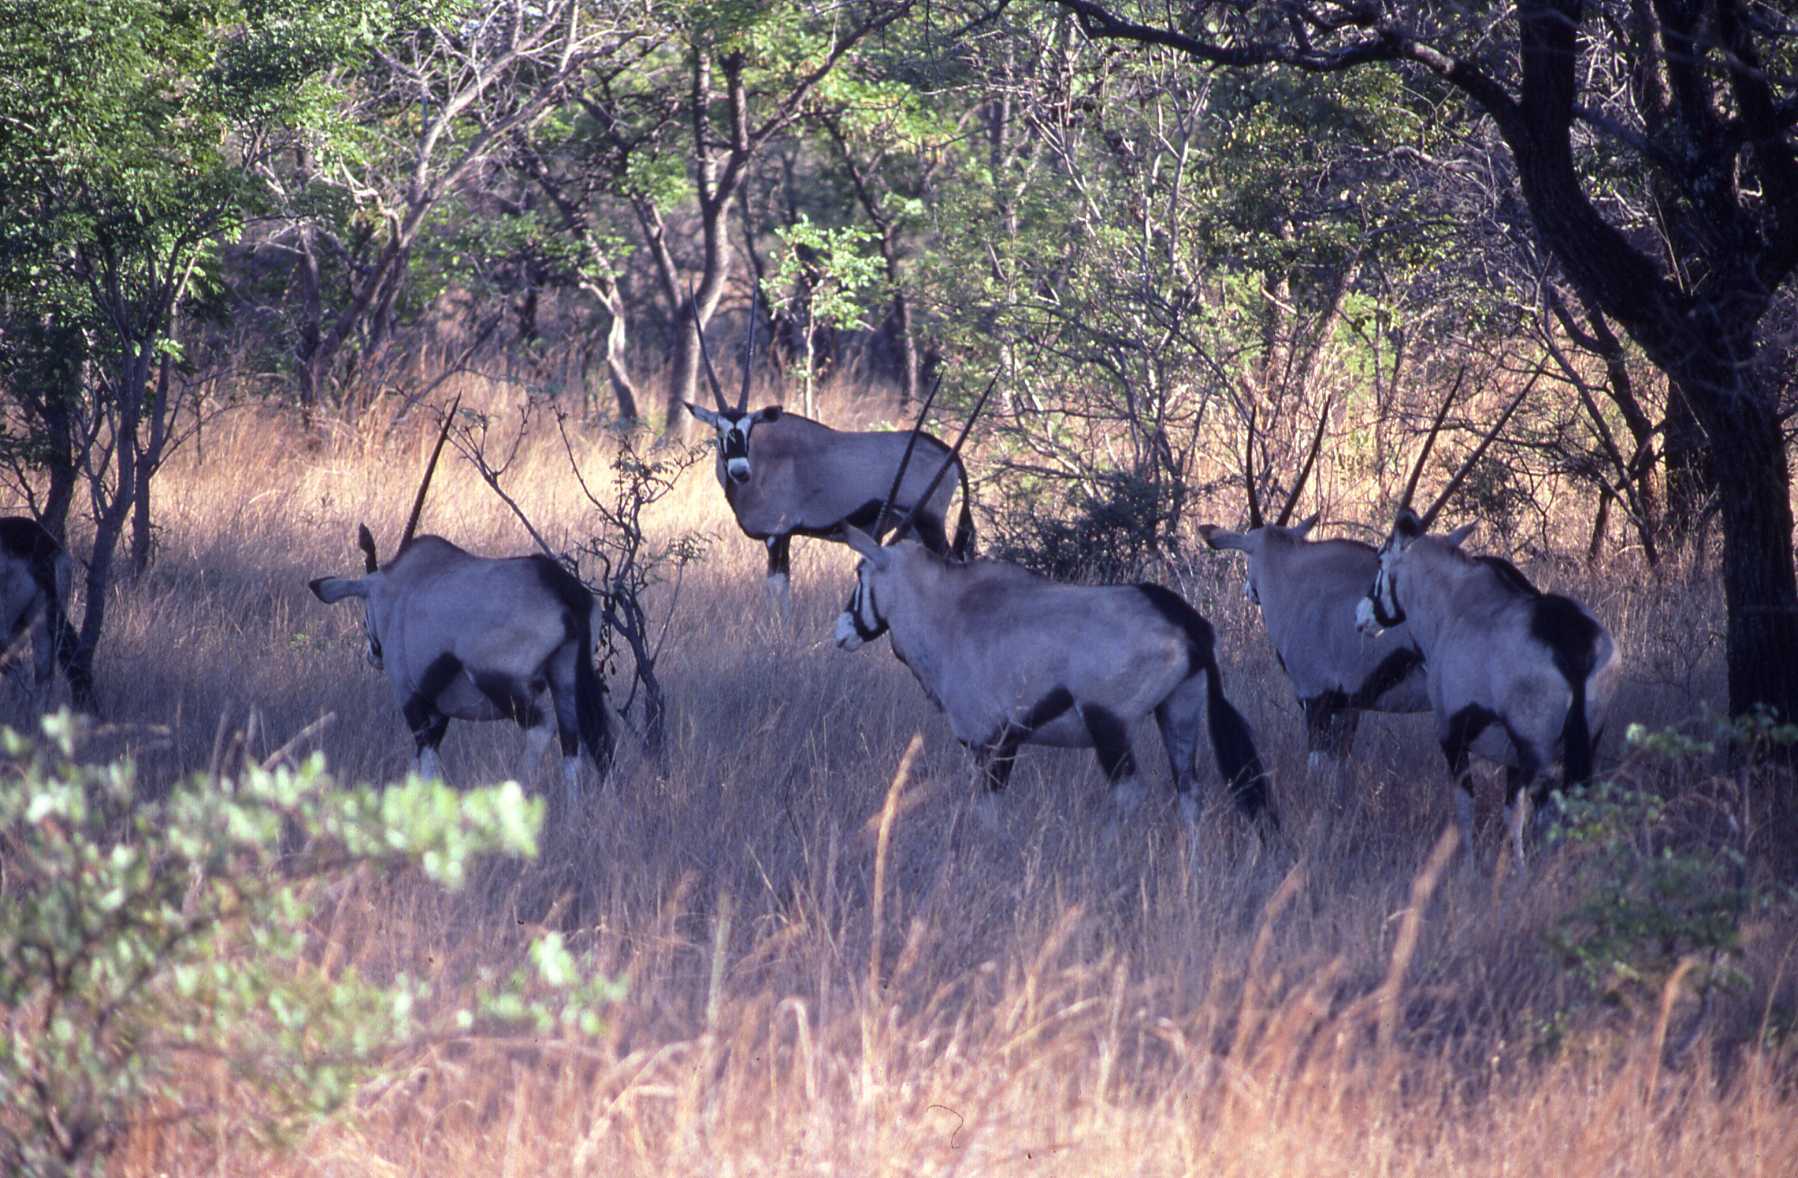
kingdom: Animalia
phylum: Chordata
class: Mammalia
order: Artiodactyla
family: Bovidae
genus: Oryx
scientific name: Oryx gazella
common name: Gemsbok
